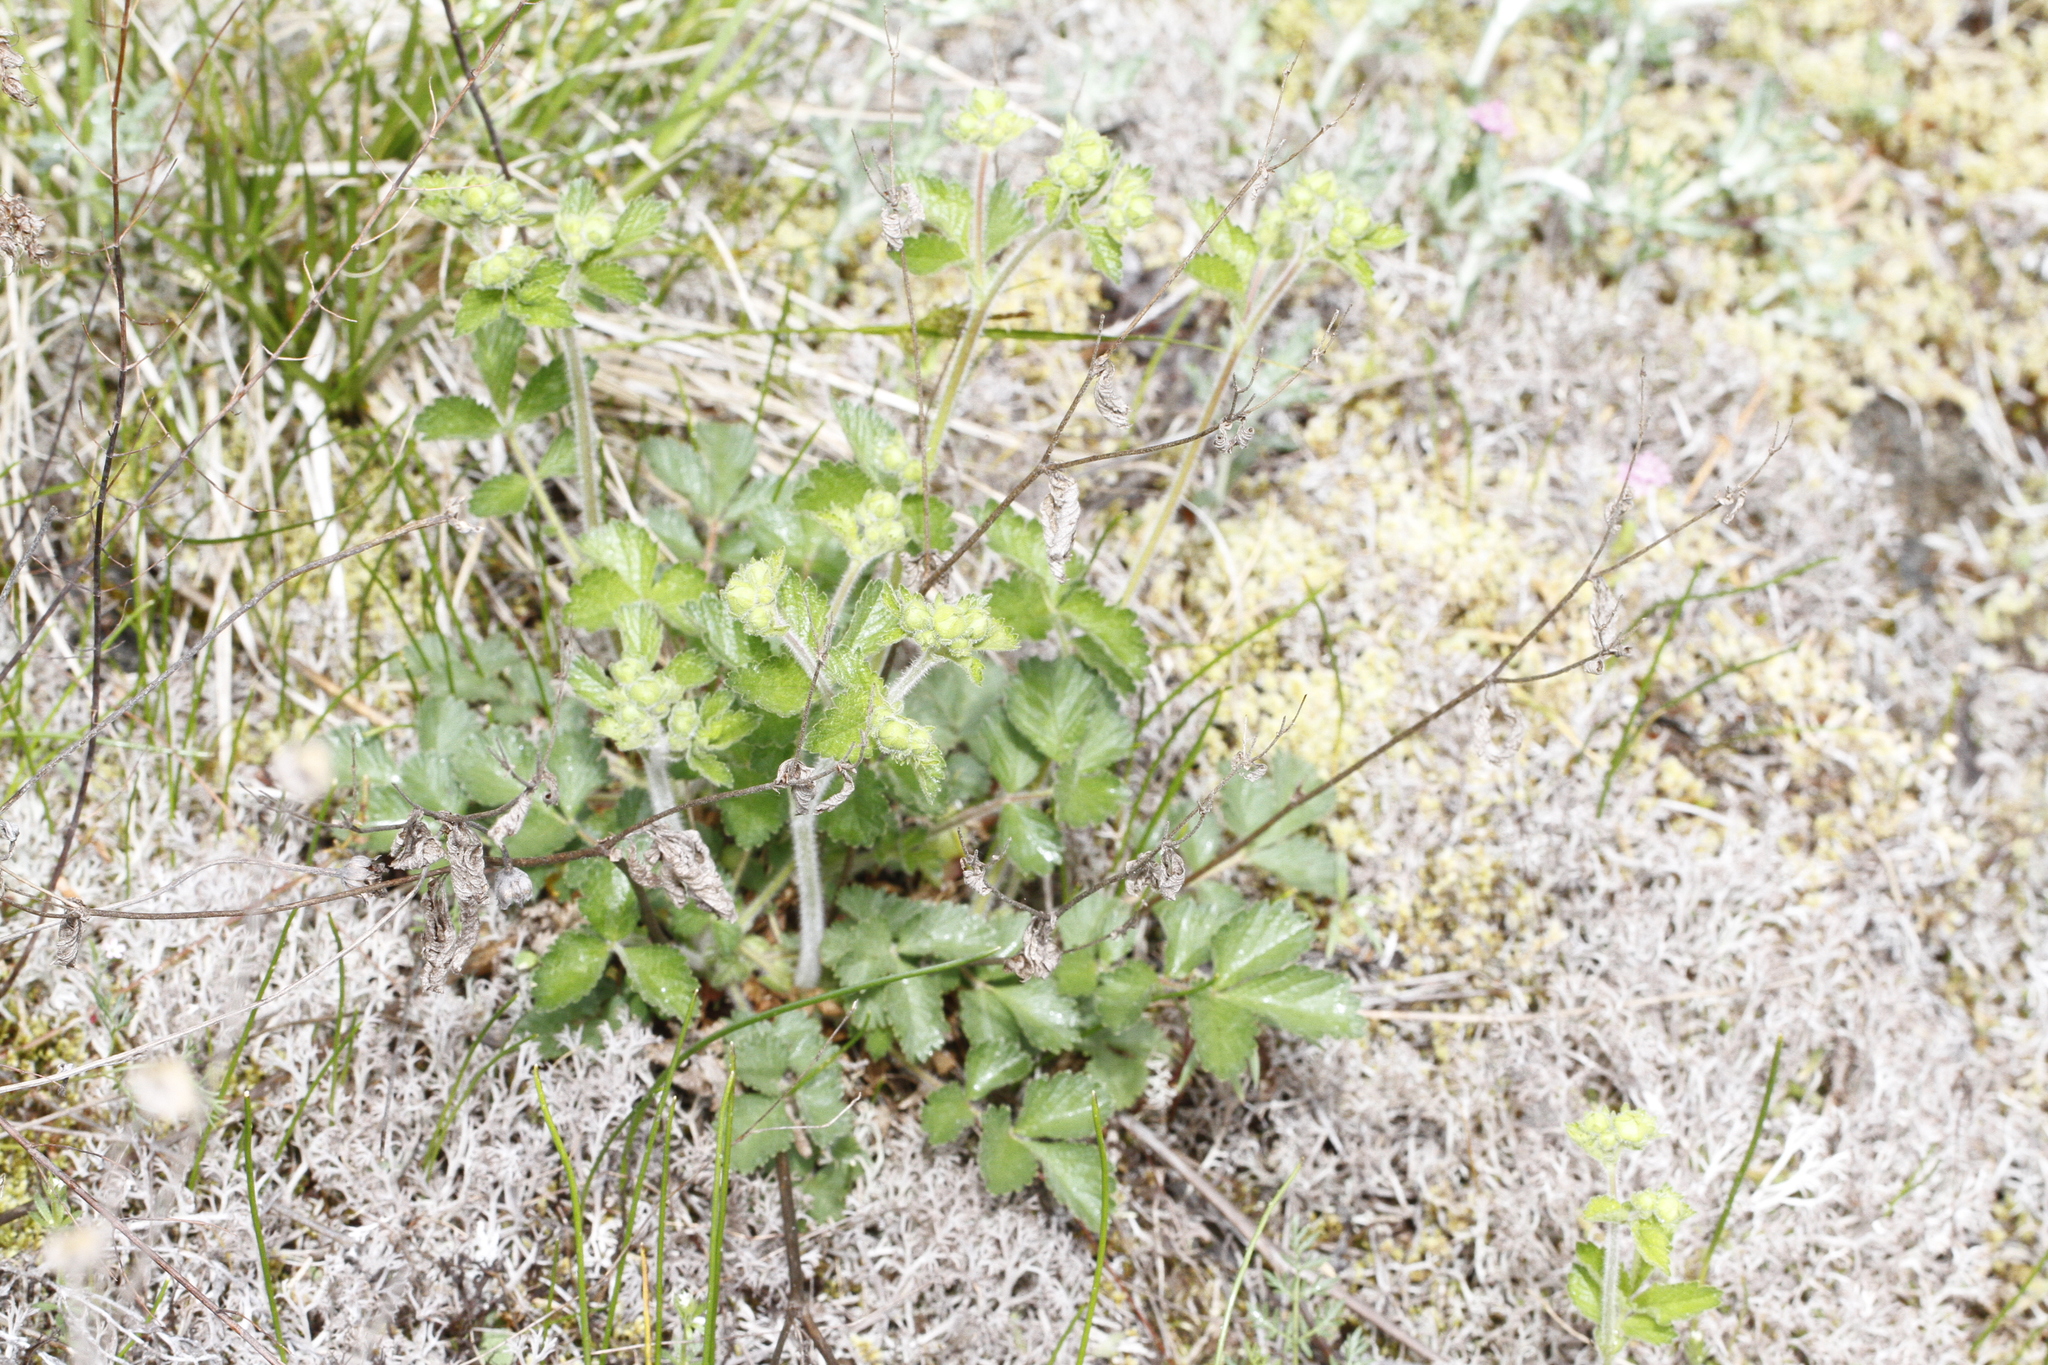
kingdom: Plantae
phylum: Tracheophyta
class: Magnoliopsida
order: Rosales
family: Rosaceae
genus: Drymocallis
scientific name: Drymocallis glandulosa
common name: Sticky cinquefoil
